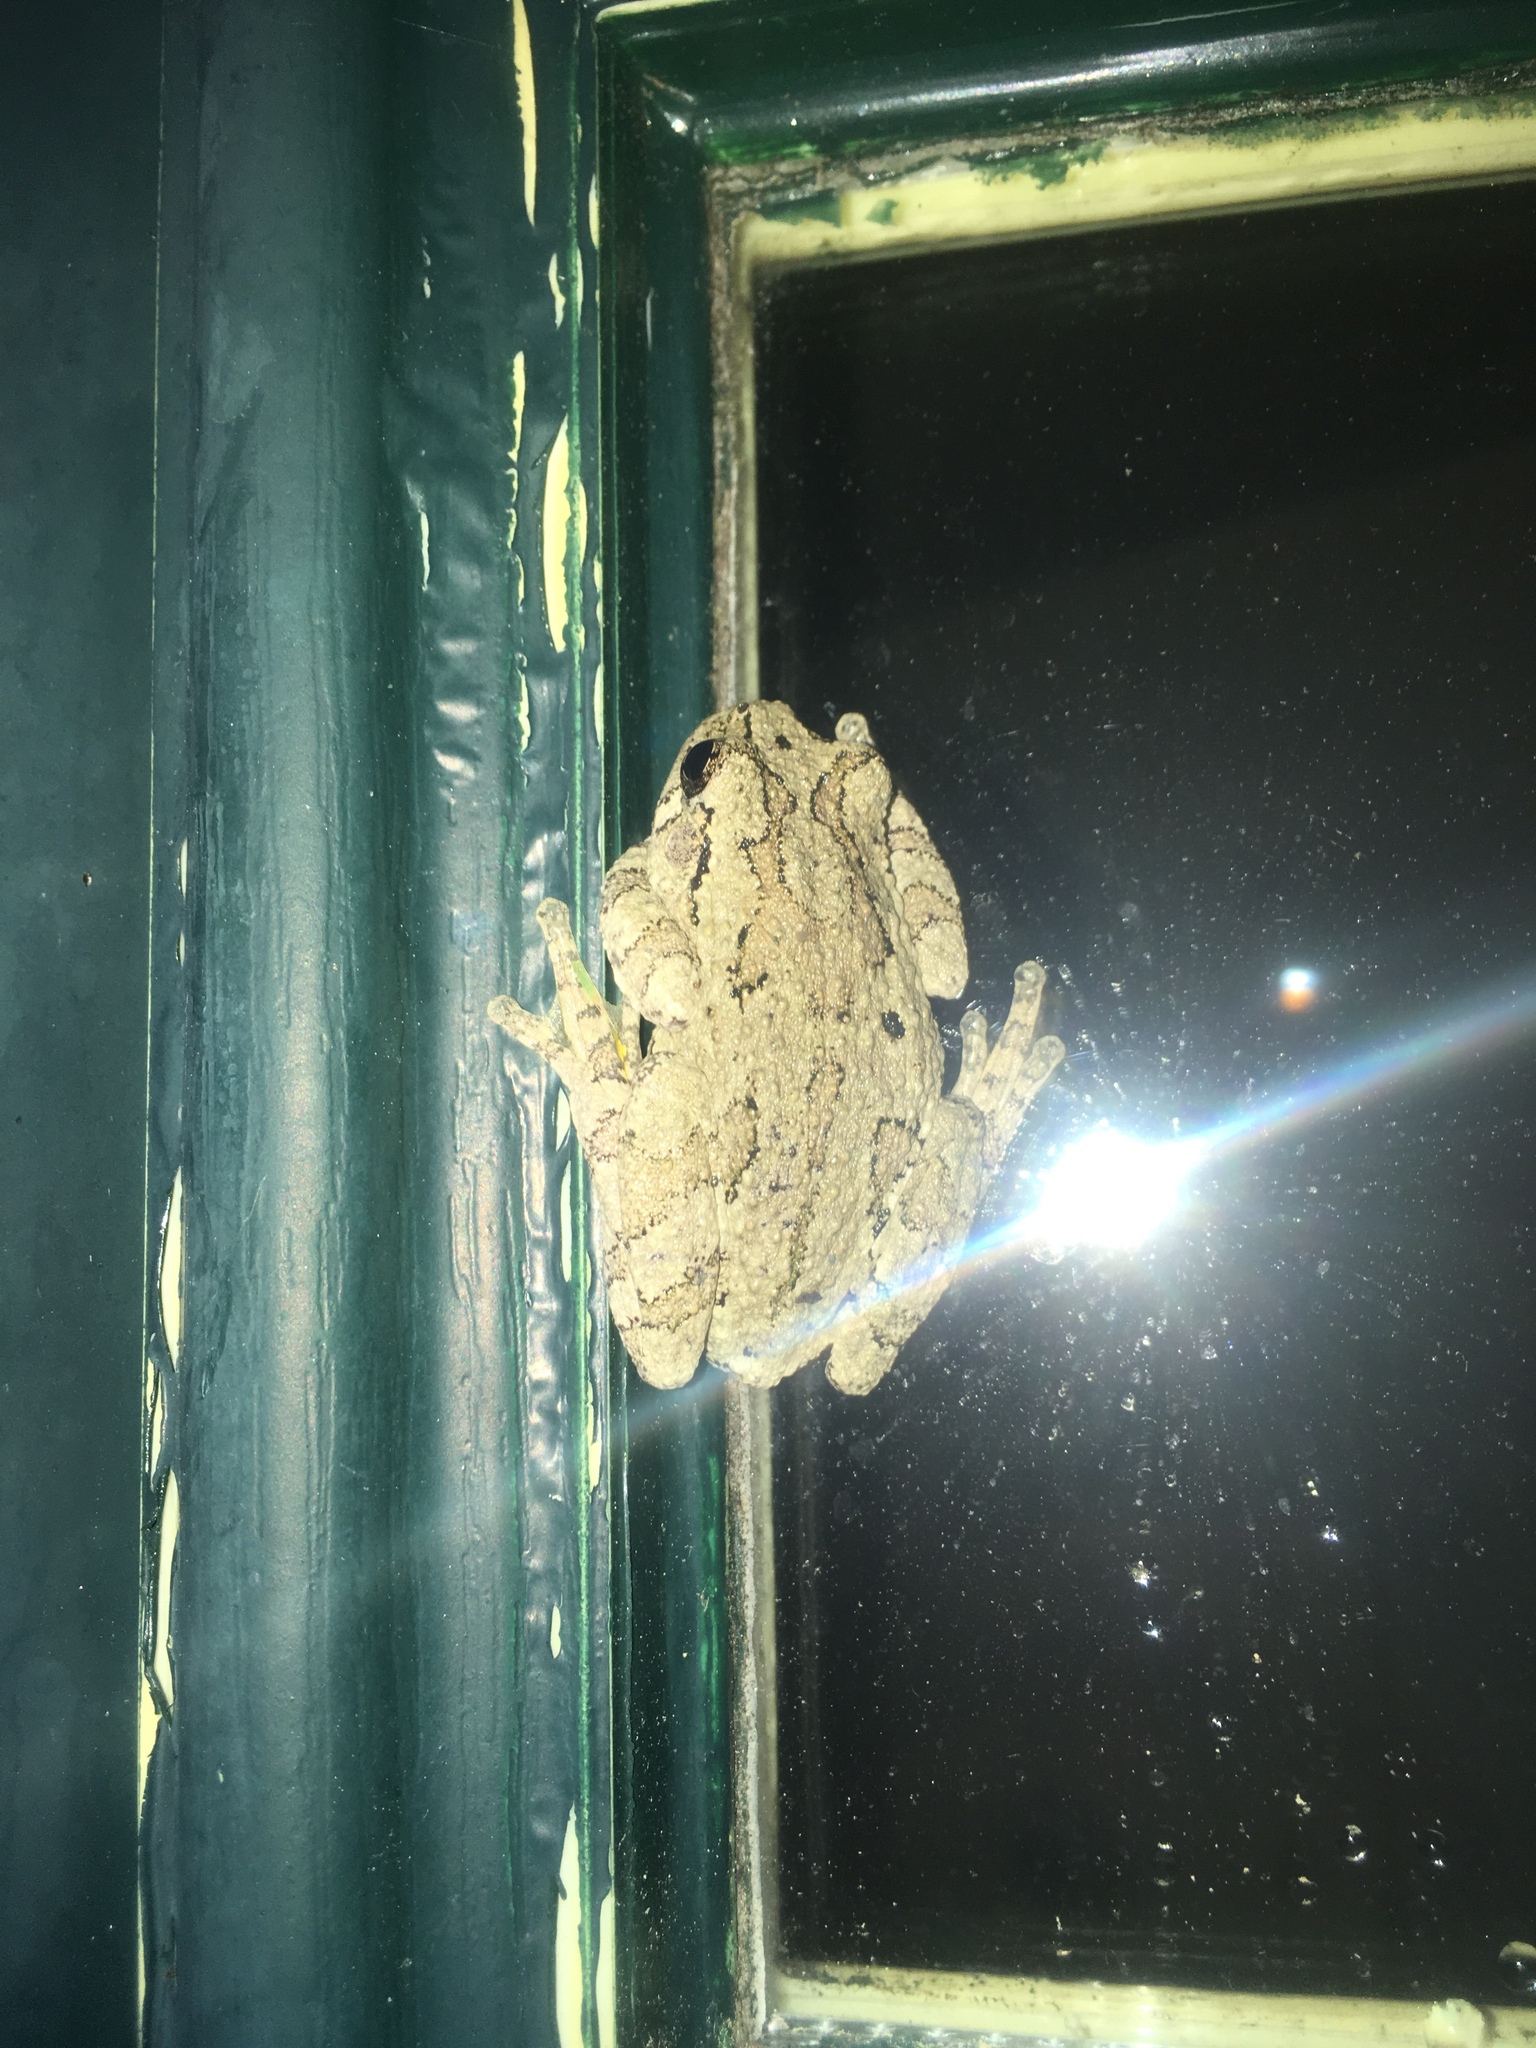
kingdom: Animalia
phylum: Chordata
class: Amphibia
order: Anura
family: Hylidae
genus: Dryophytes
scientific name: Dryophytes versicolor
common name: Gray treefrog
